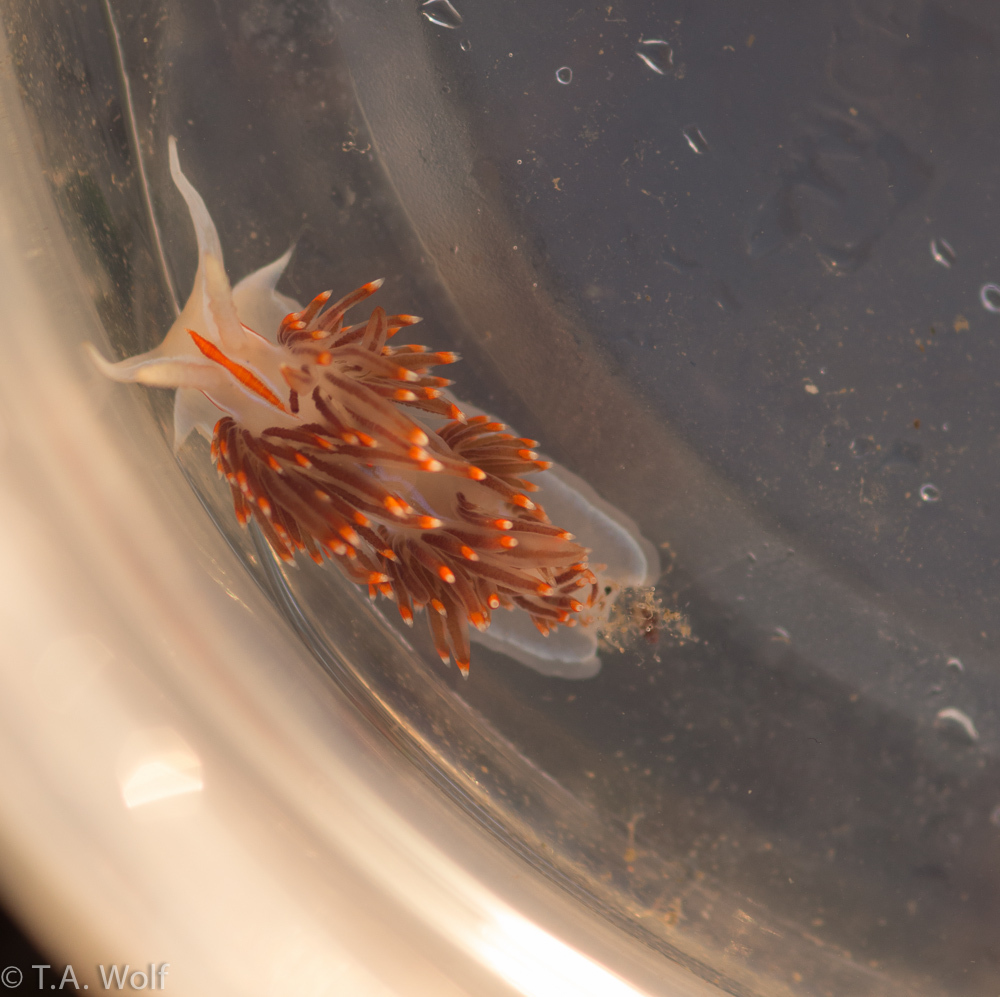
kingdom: Animalia
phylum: Mollusca
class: Gastropoda
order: Nudibranchia
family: Myrrhinidae
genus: Hermissenda
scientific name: Hermissenda opalescens
